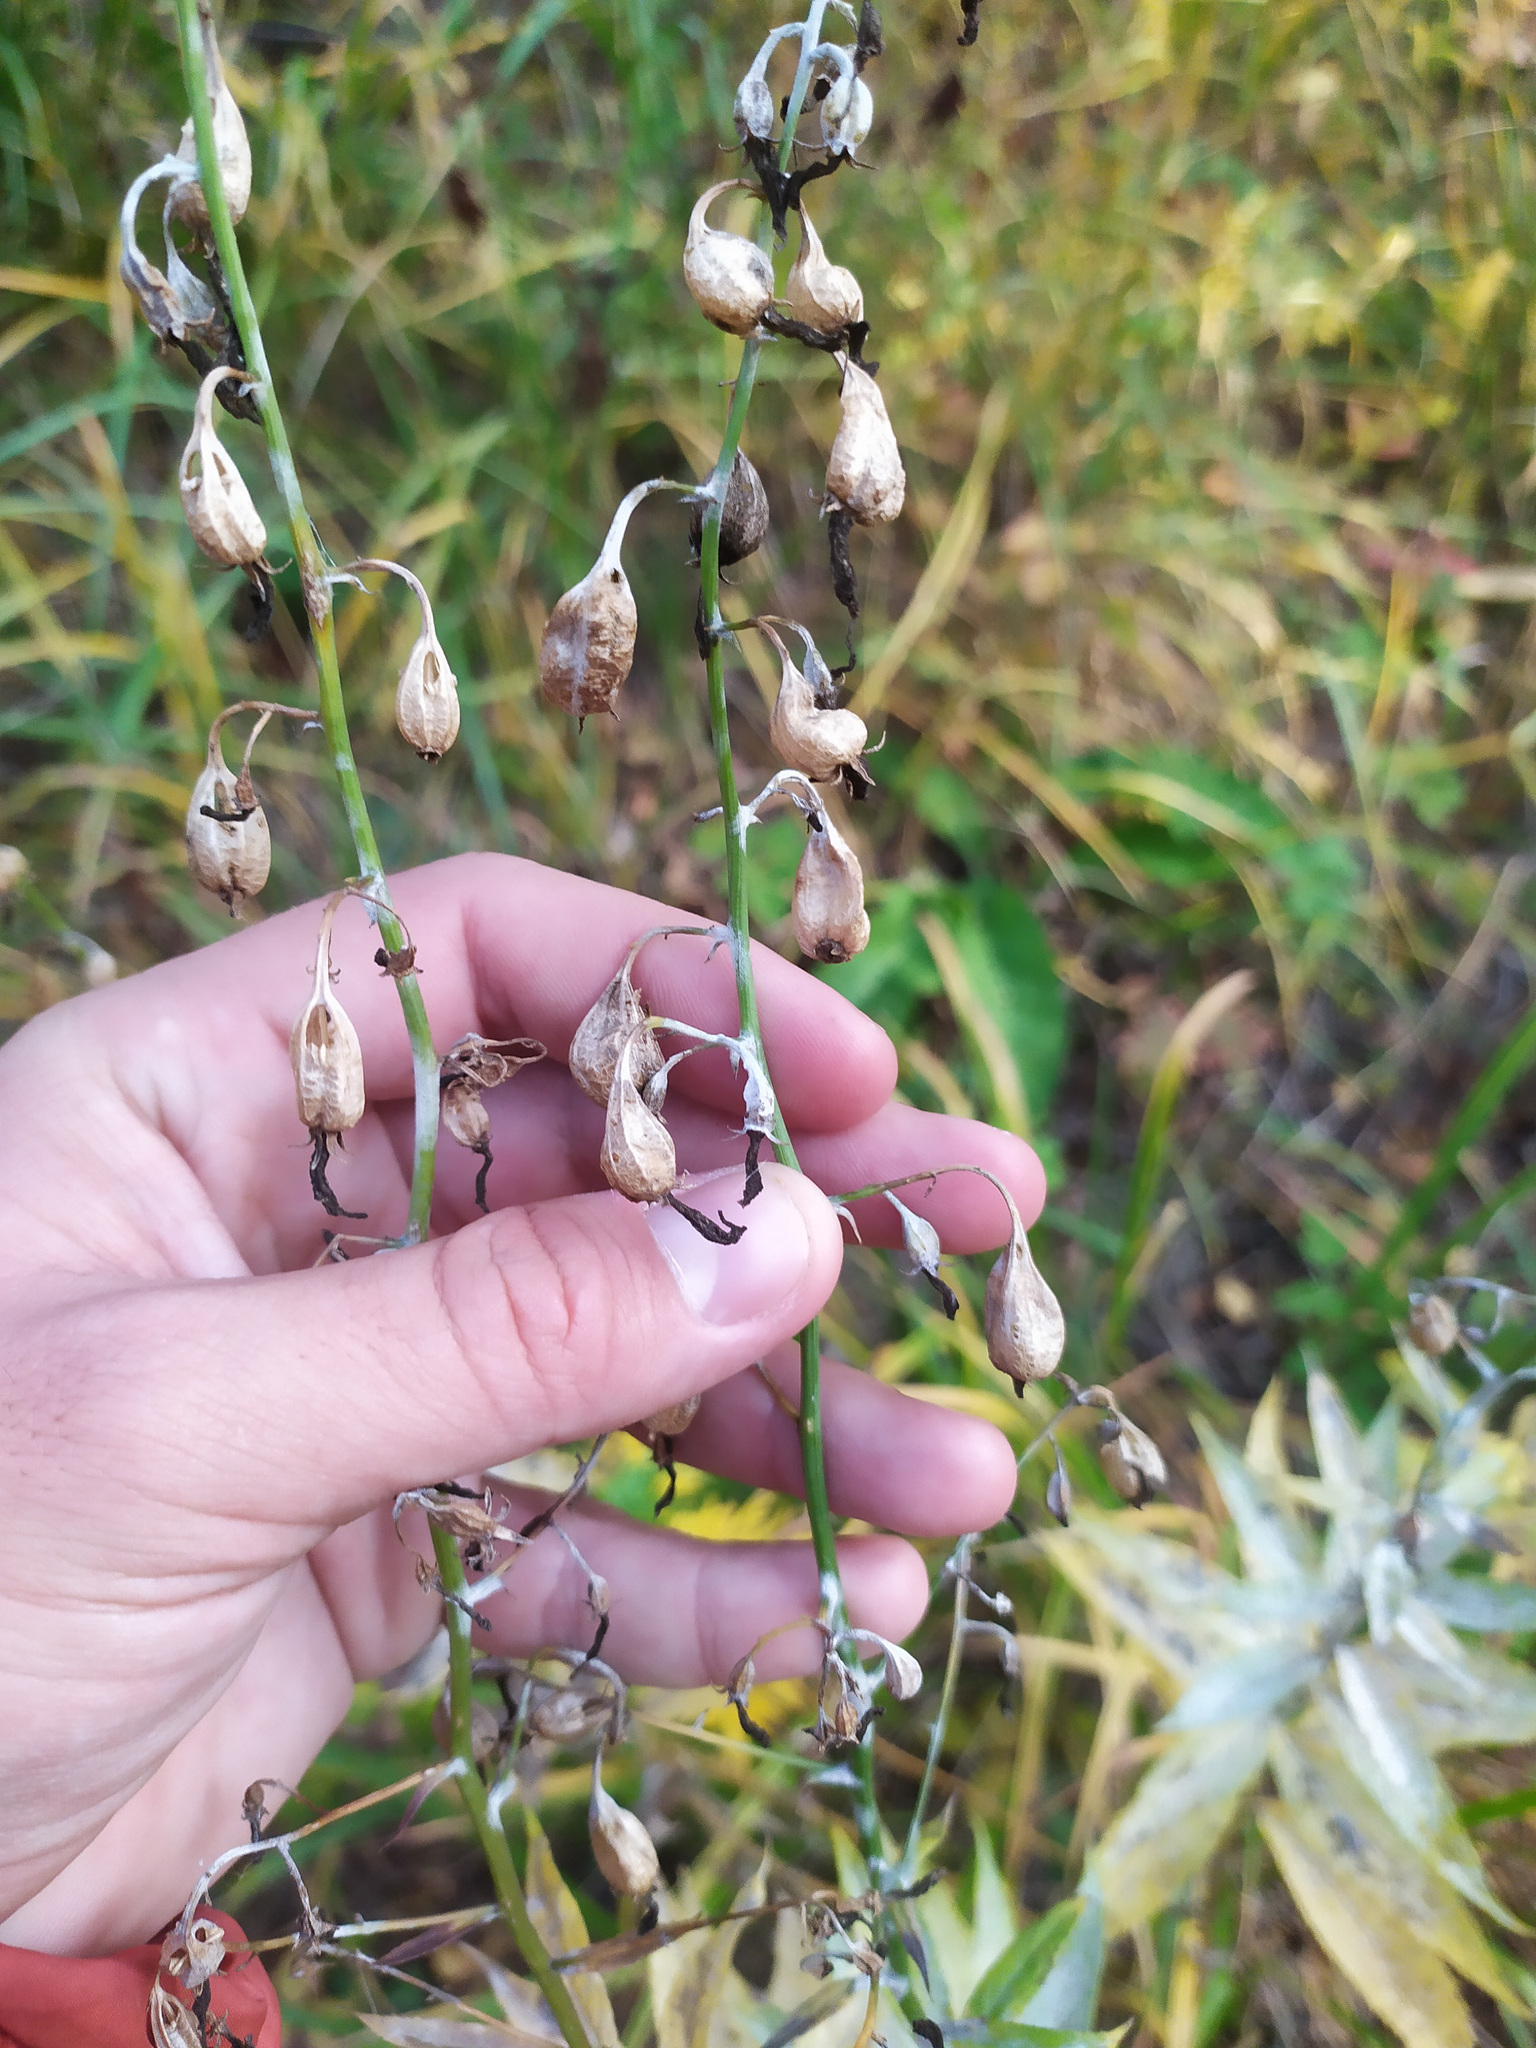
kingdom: Plantae
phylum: Tracheophyta
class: Magnoliopsida
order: Asterales
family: Campanulaceae
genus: Adenophora
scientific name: Adenophora liliifolia
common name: Lilyleaf ladybells
